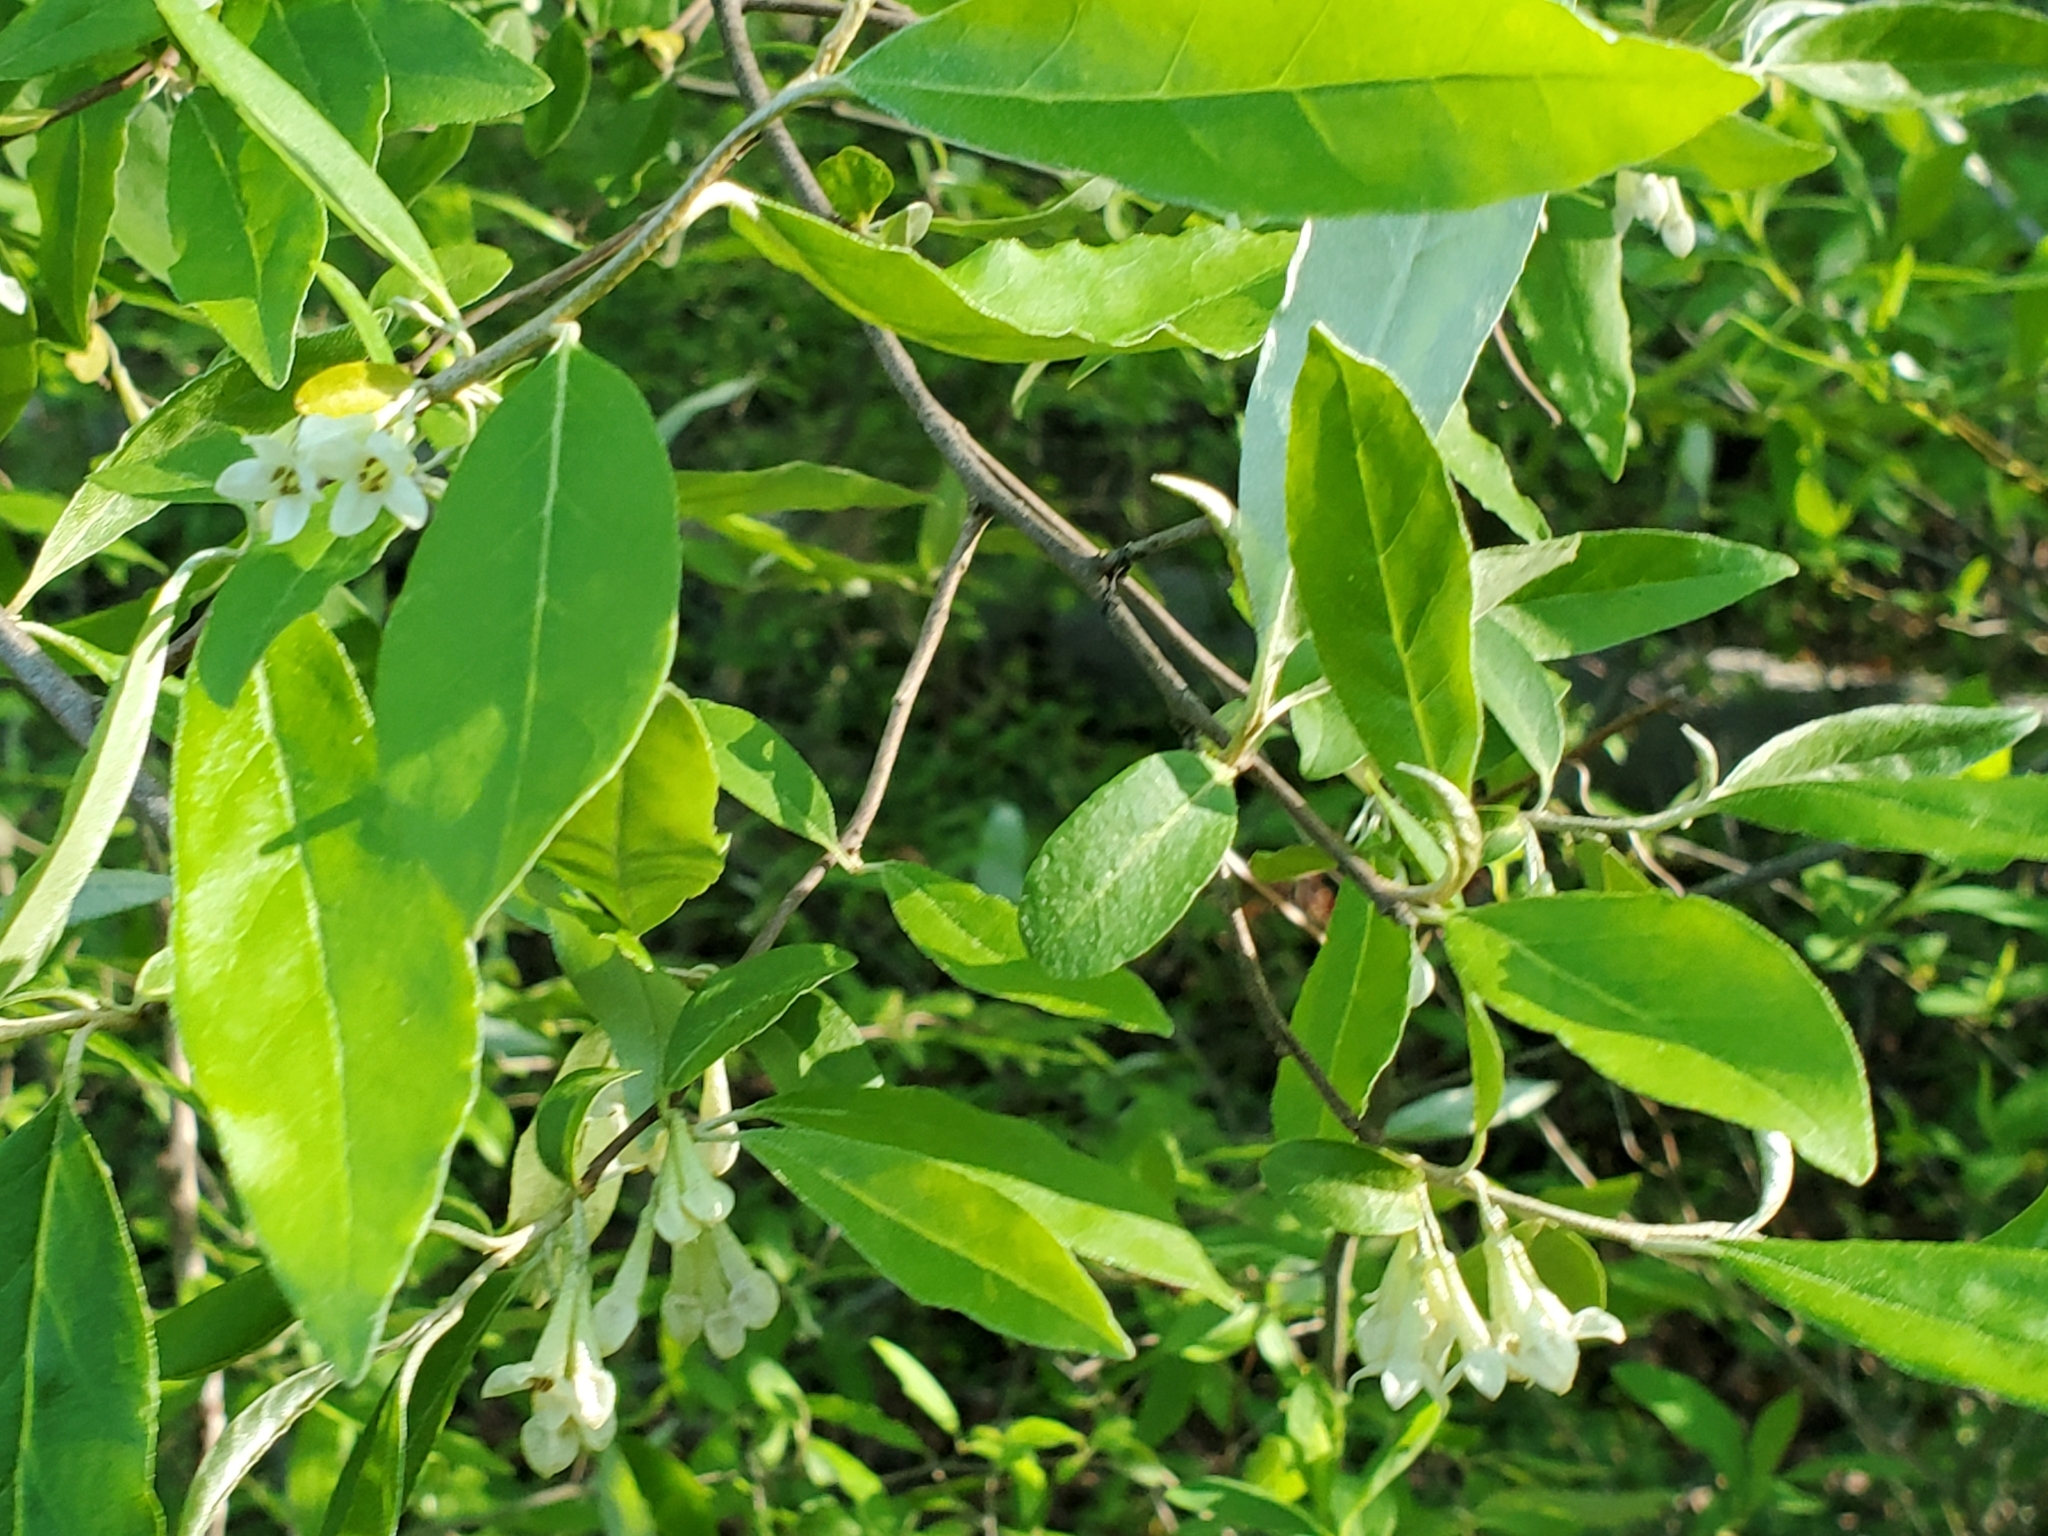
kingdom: Plantae
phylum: Tracheophyta
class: Magnoliopsida
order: Rosales
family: Elaeagnaceae
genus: Elaeagnus
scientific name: Elaeagnus umbellata
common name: Autumn olive
